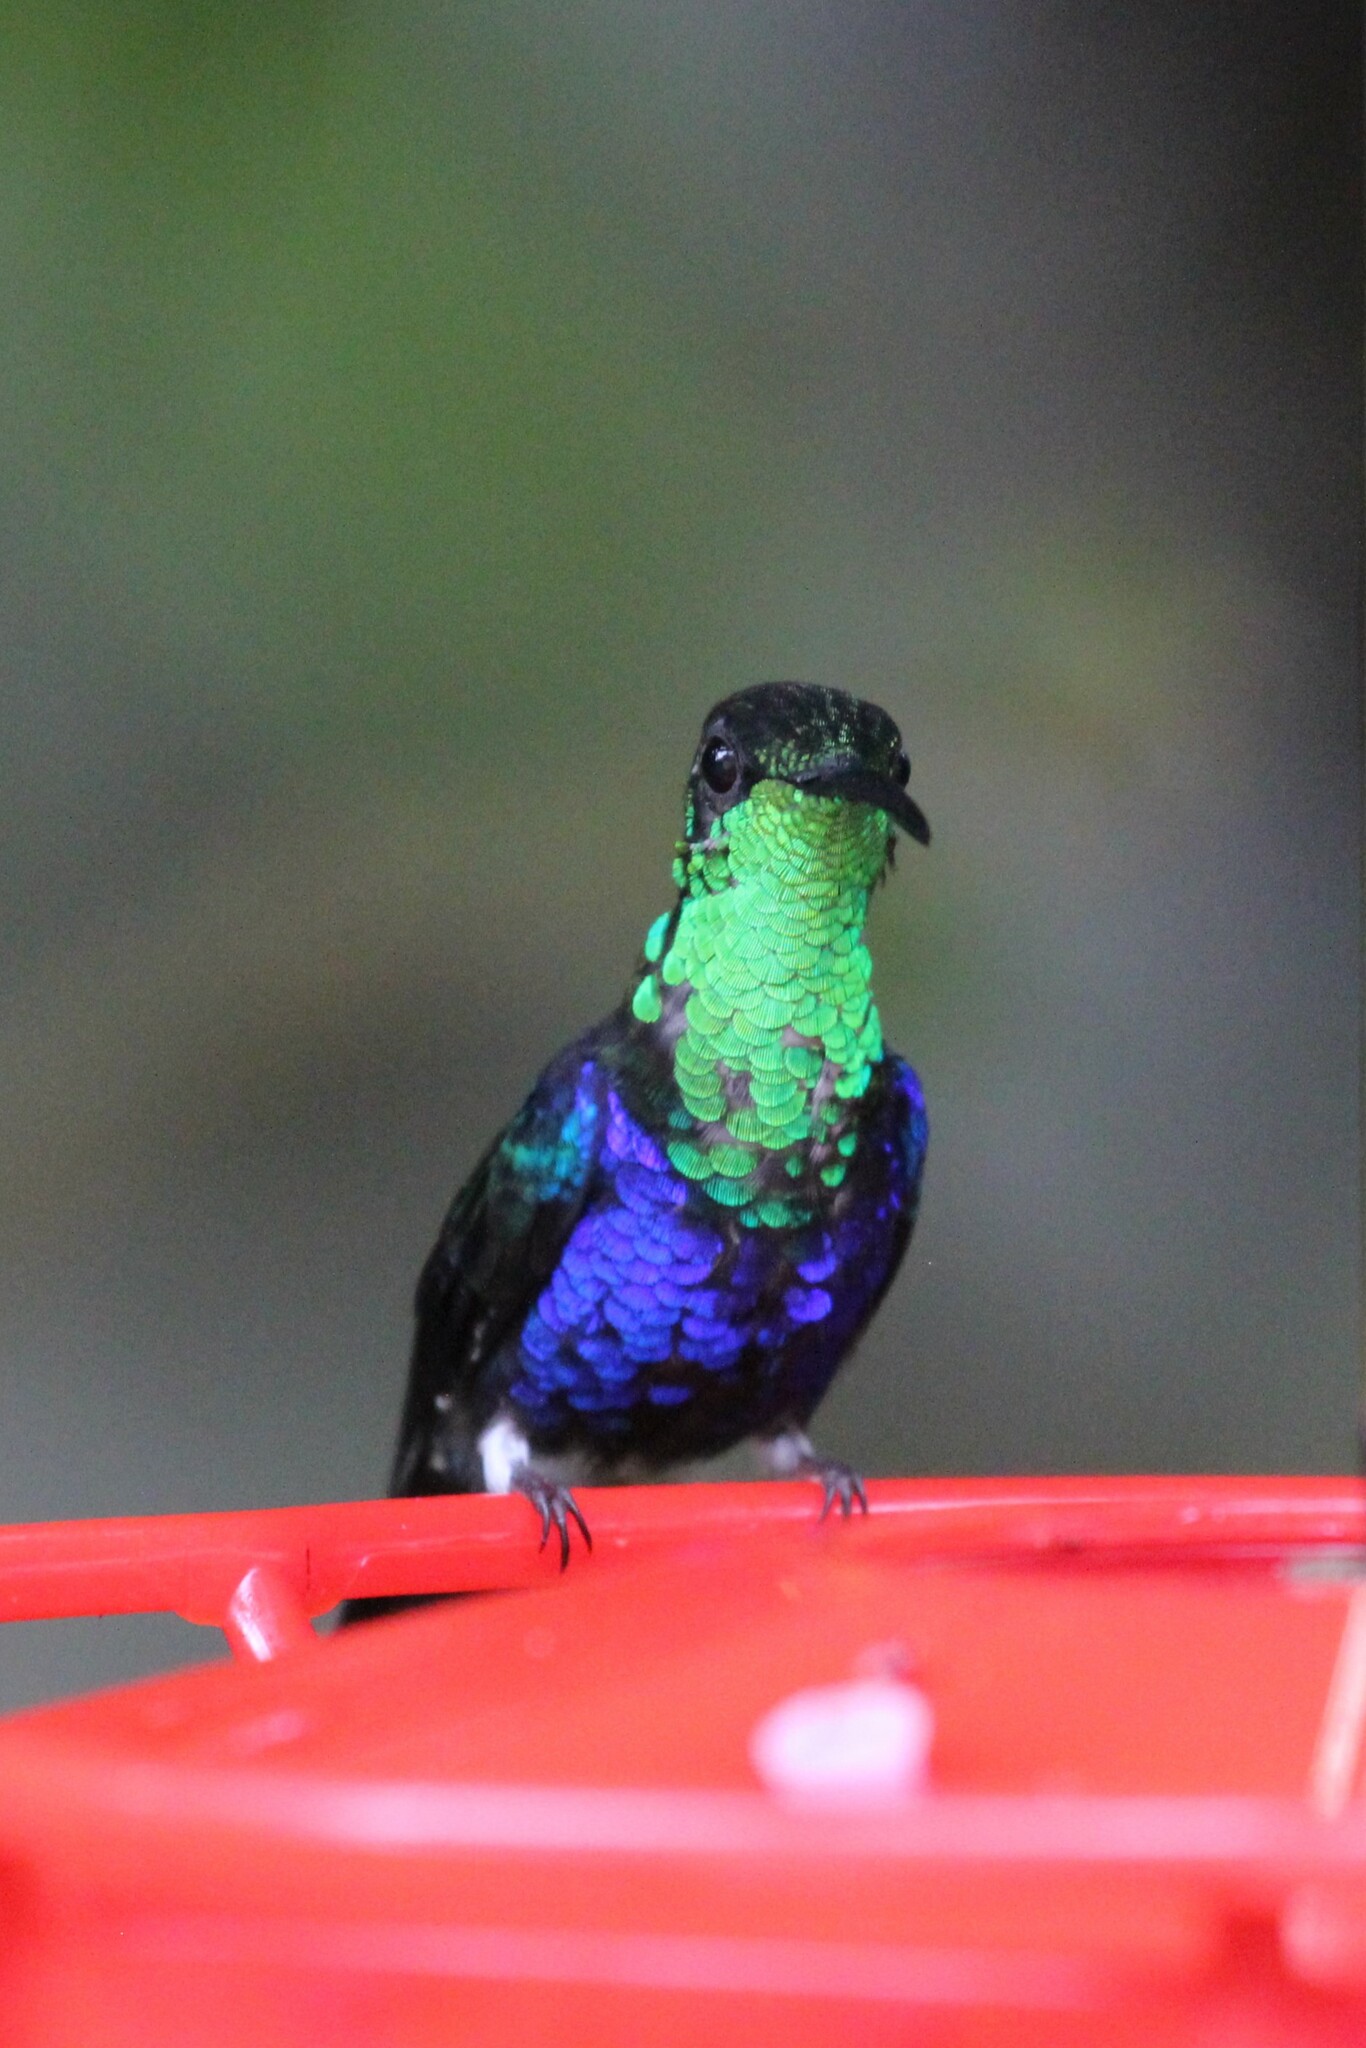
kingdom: Animalia
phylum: Chordata
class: Aves
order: Apodiformes
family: Trochilidae
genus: Thalurania
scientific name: Thalurania furcata
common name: Fork-tailed woodnymph
